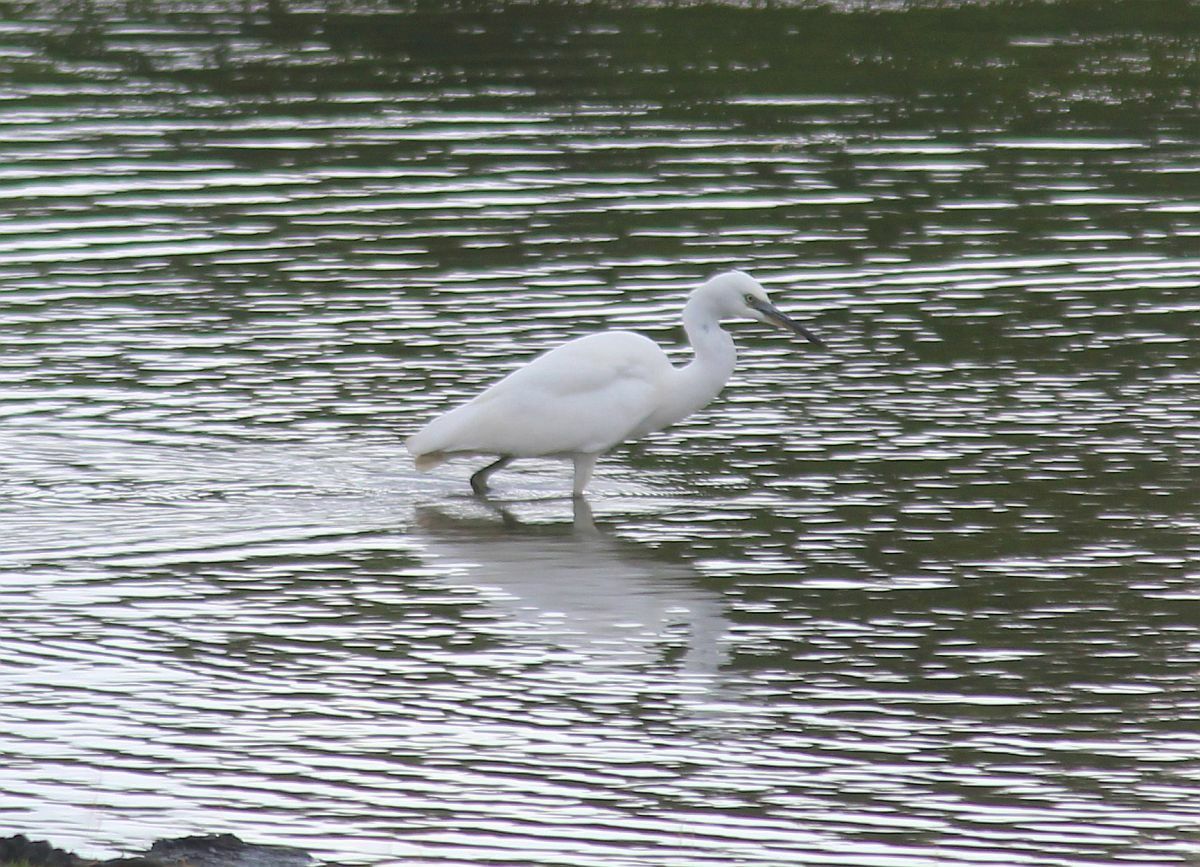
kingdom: Animalia
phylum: Chordata
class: Aves
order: Pelecaniformes
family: Ardeidae
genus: Egretta
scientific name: Egretta garzetta
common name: Little egret
